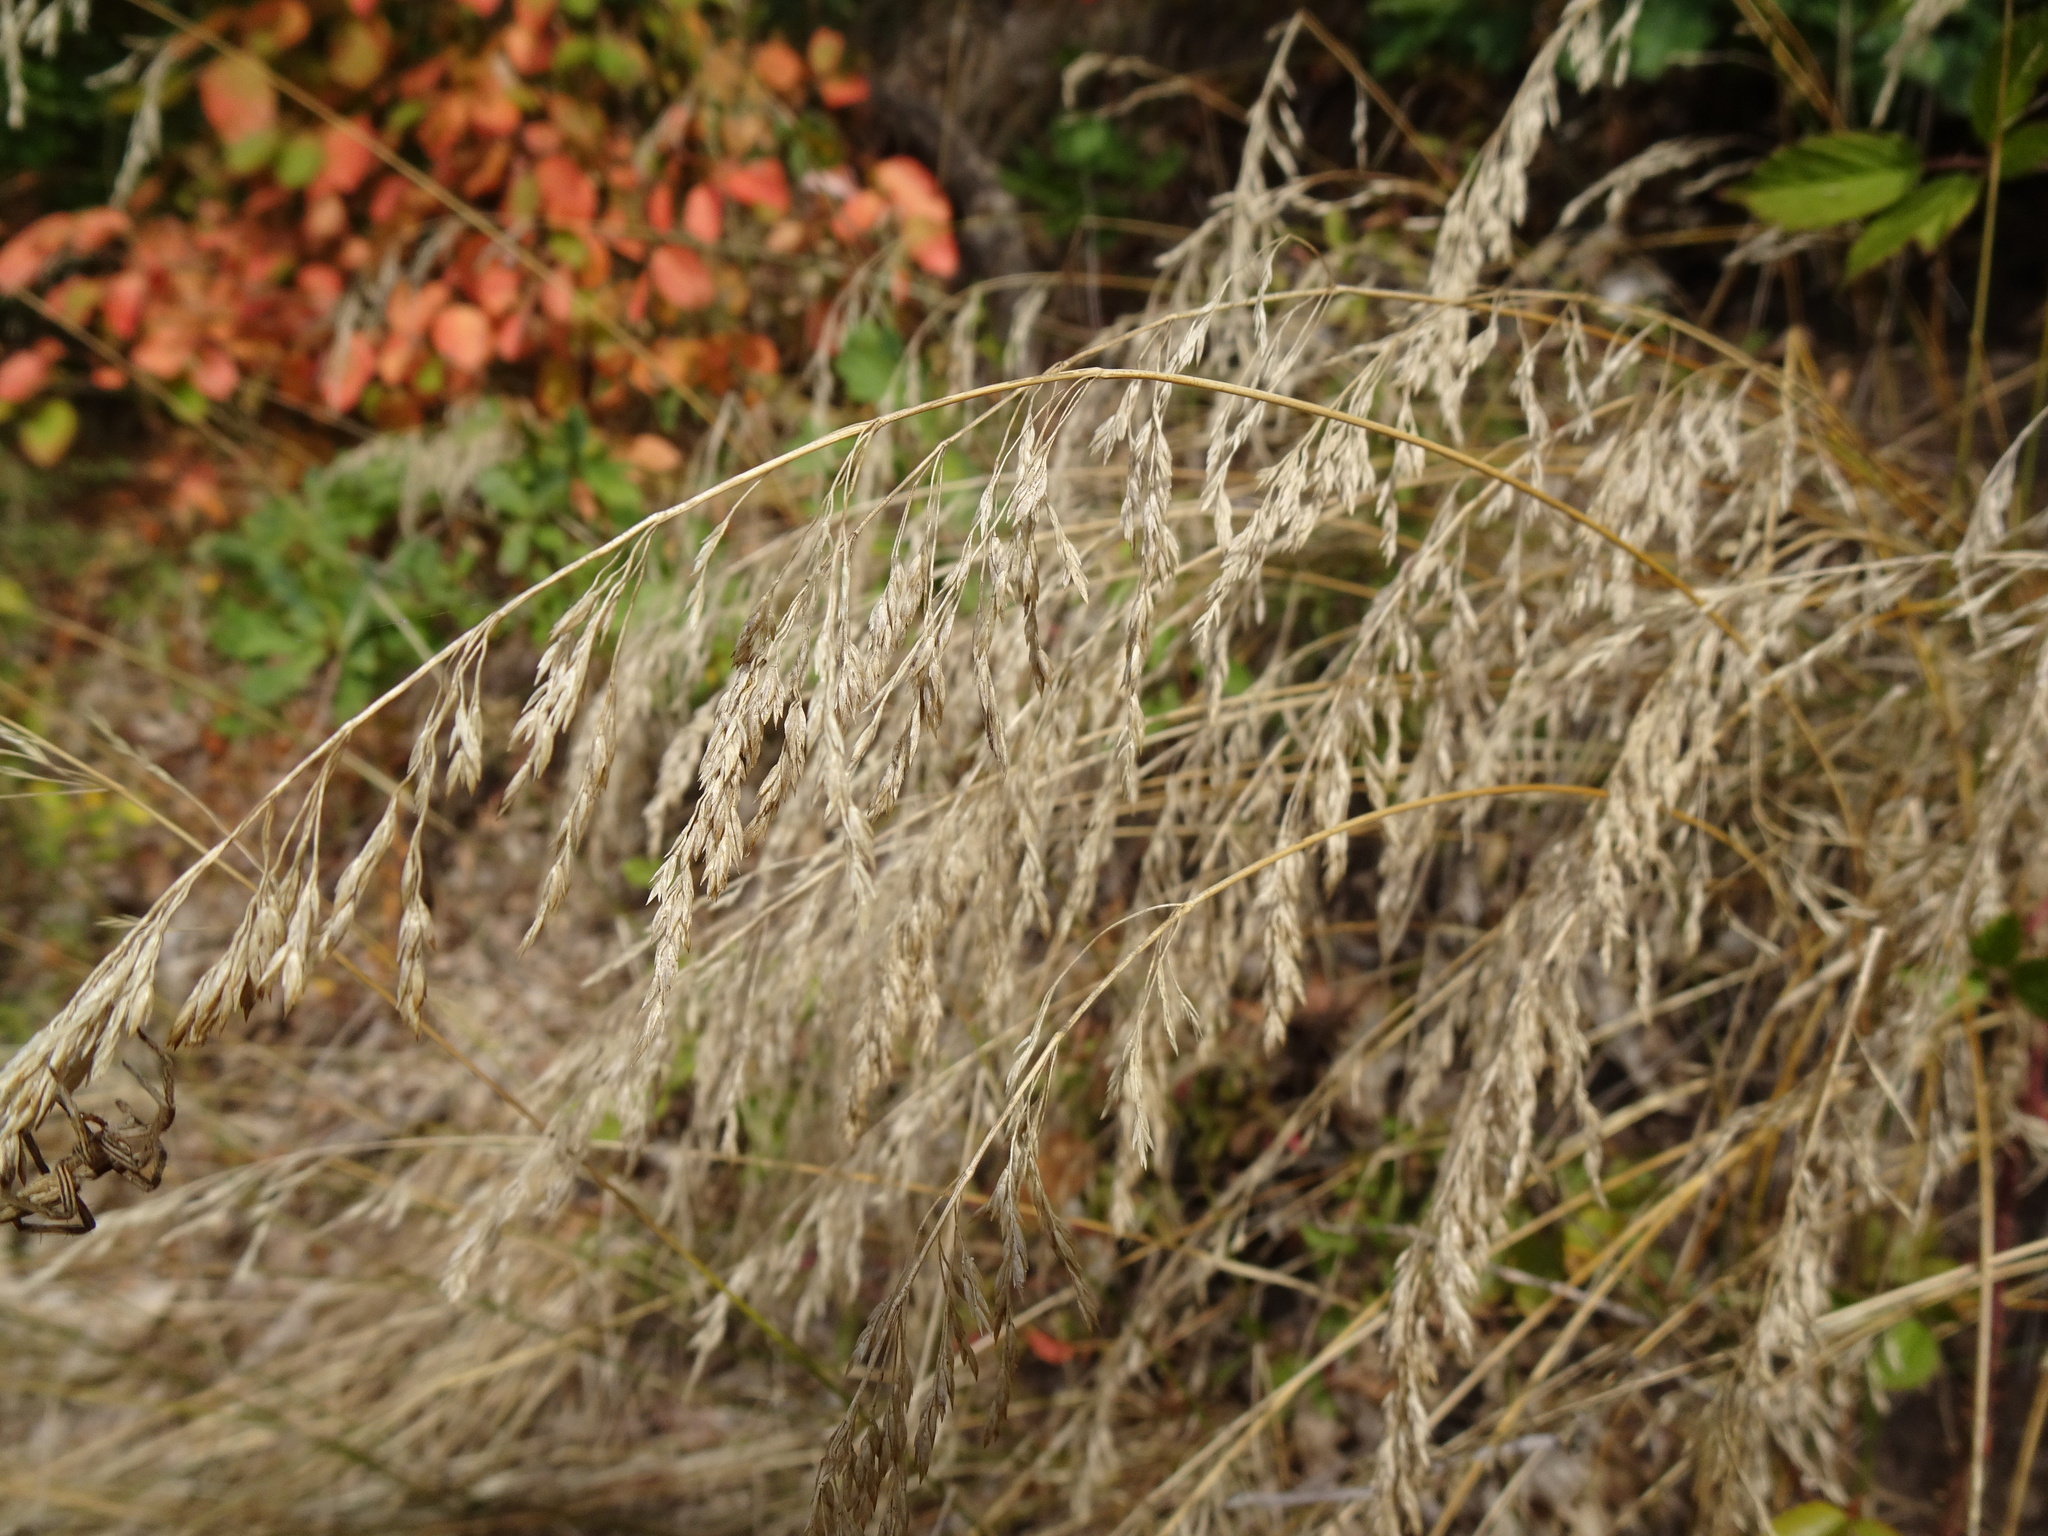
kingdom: Plantae
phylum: Tracheophyta
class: Liliopsida
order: Poales
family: Poaceae
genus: Poa
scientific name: Poa nemoralis
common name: Wood bluegrass
